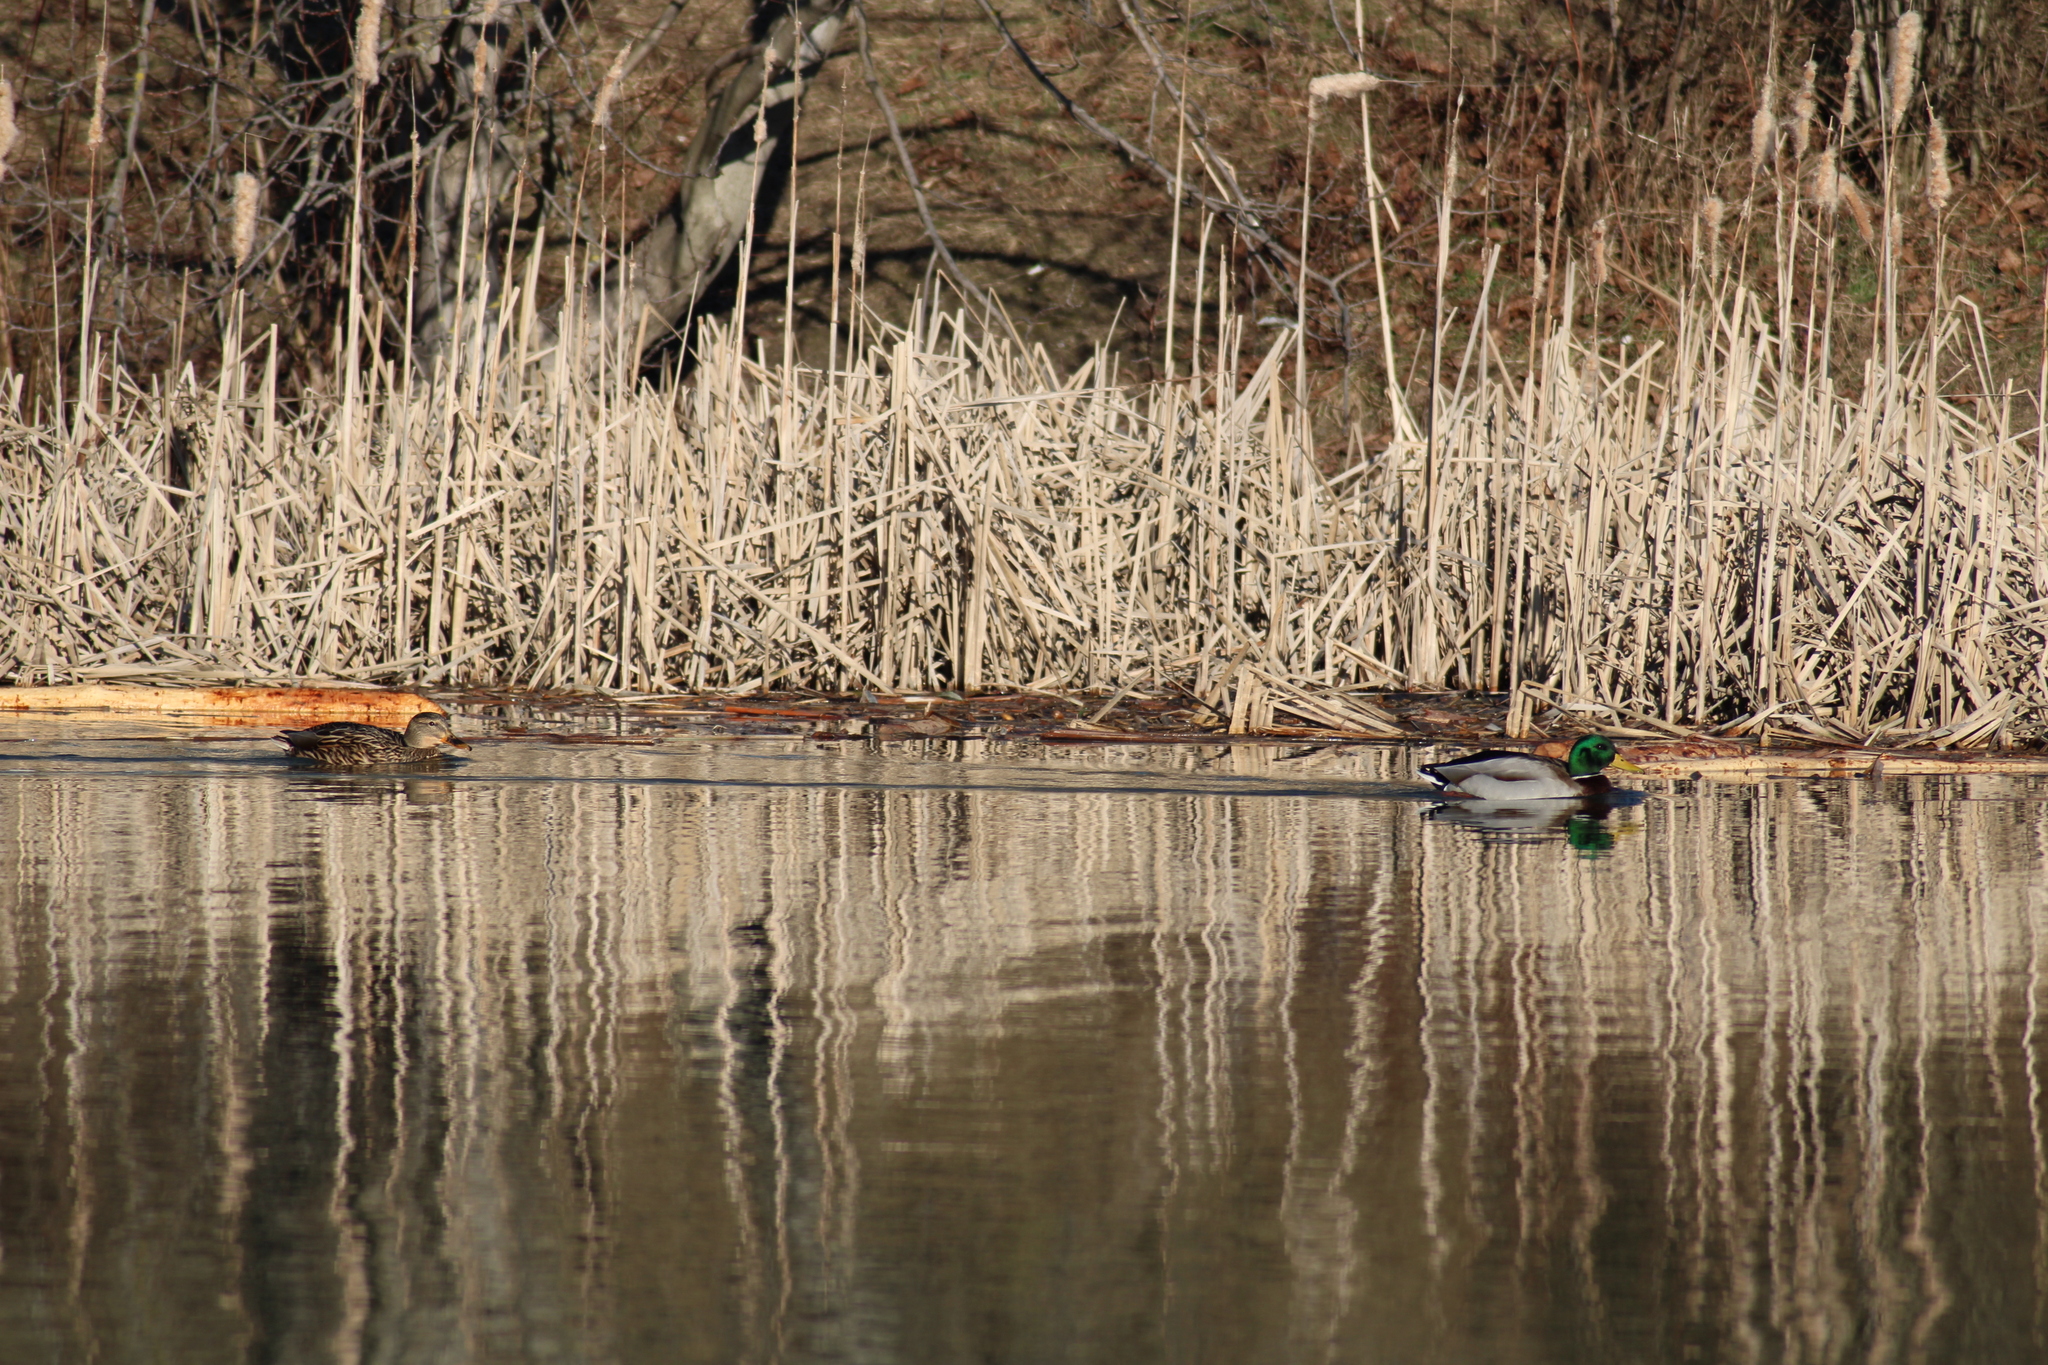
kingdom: Animalia
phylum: Chordata
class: Aves
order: Anseriformes
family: Anatidae
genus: Anas
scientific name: Anas platyrhynchos
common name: Mallard
